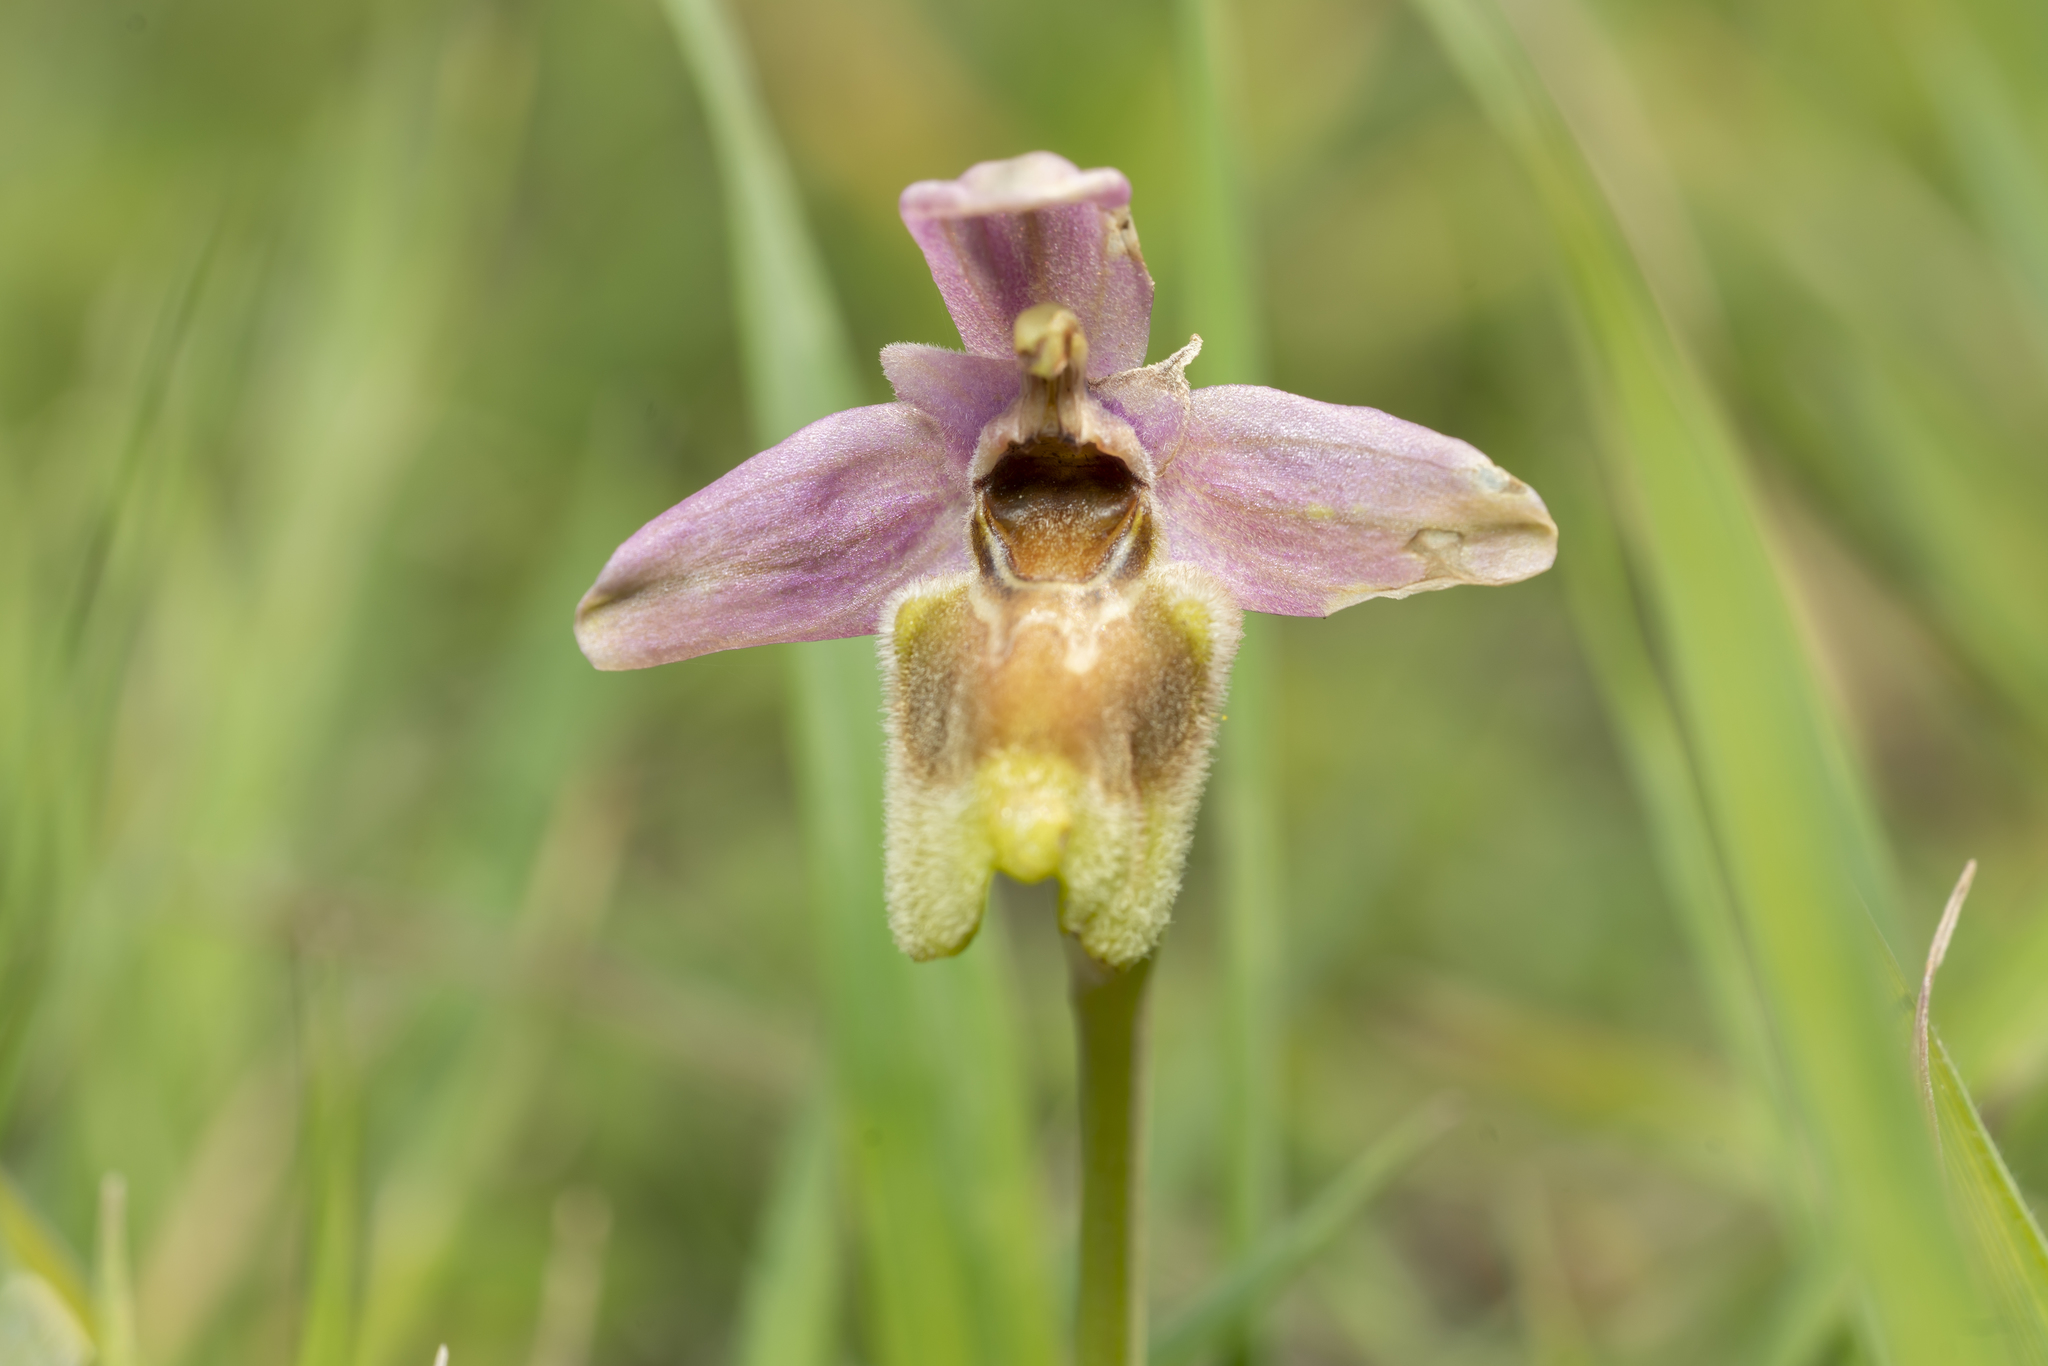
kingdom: Plantae
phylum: Tracheophyta
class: Liliopsida
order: Asparagales
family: Orchidaceae
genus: Ophrys
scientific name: Ophrys tenthredinifera
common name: Sawfly orchid
